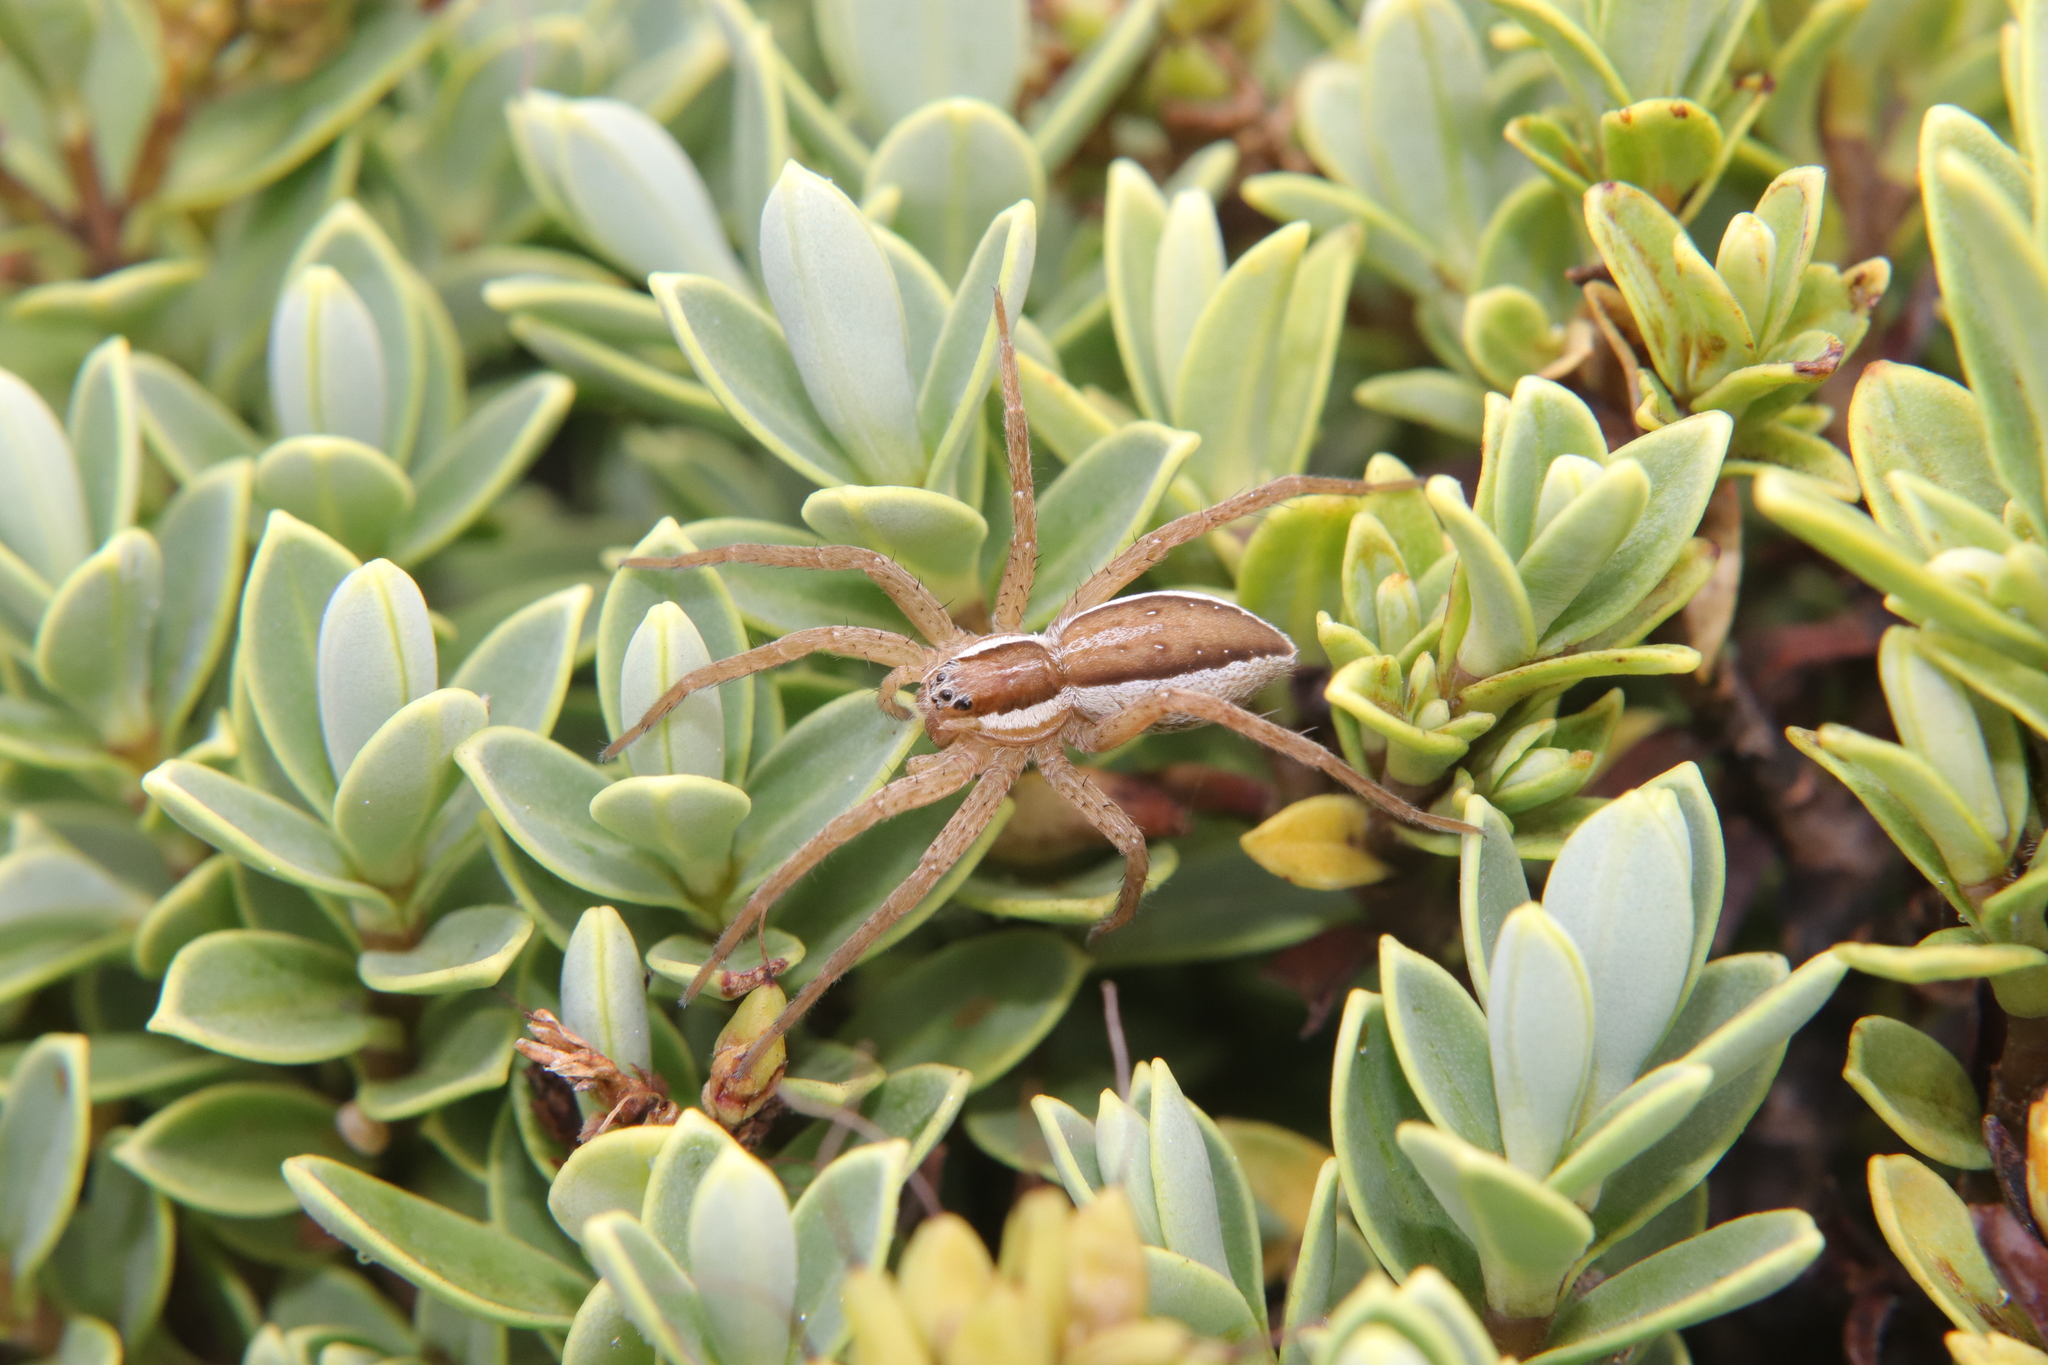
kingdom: Animalia
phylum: Arthropoda
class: Arachnida
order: Araneae
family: Pisauridae
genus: Dolomedes
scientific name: Dolomedes minor
